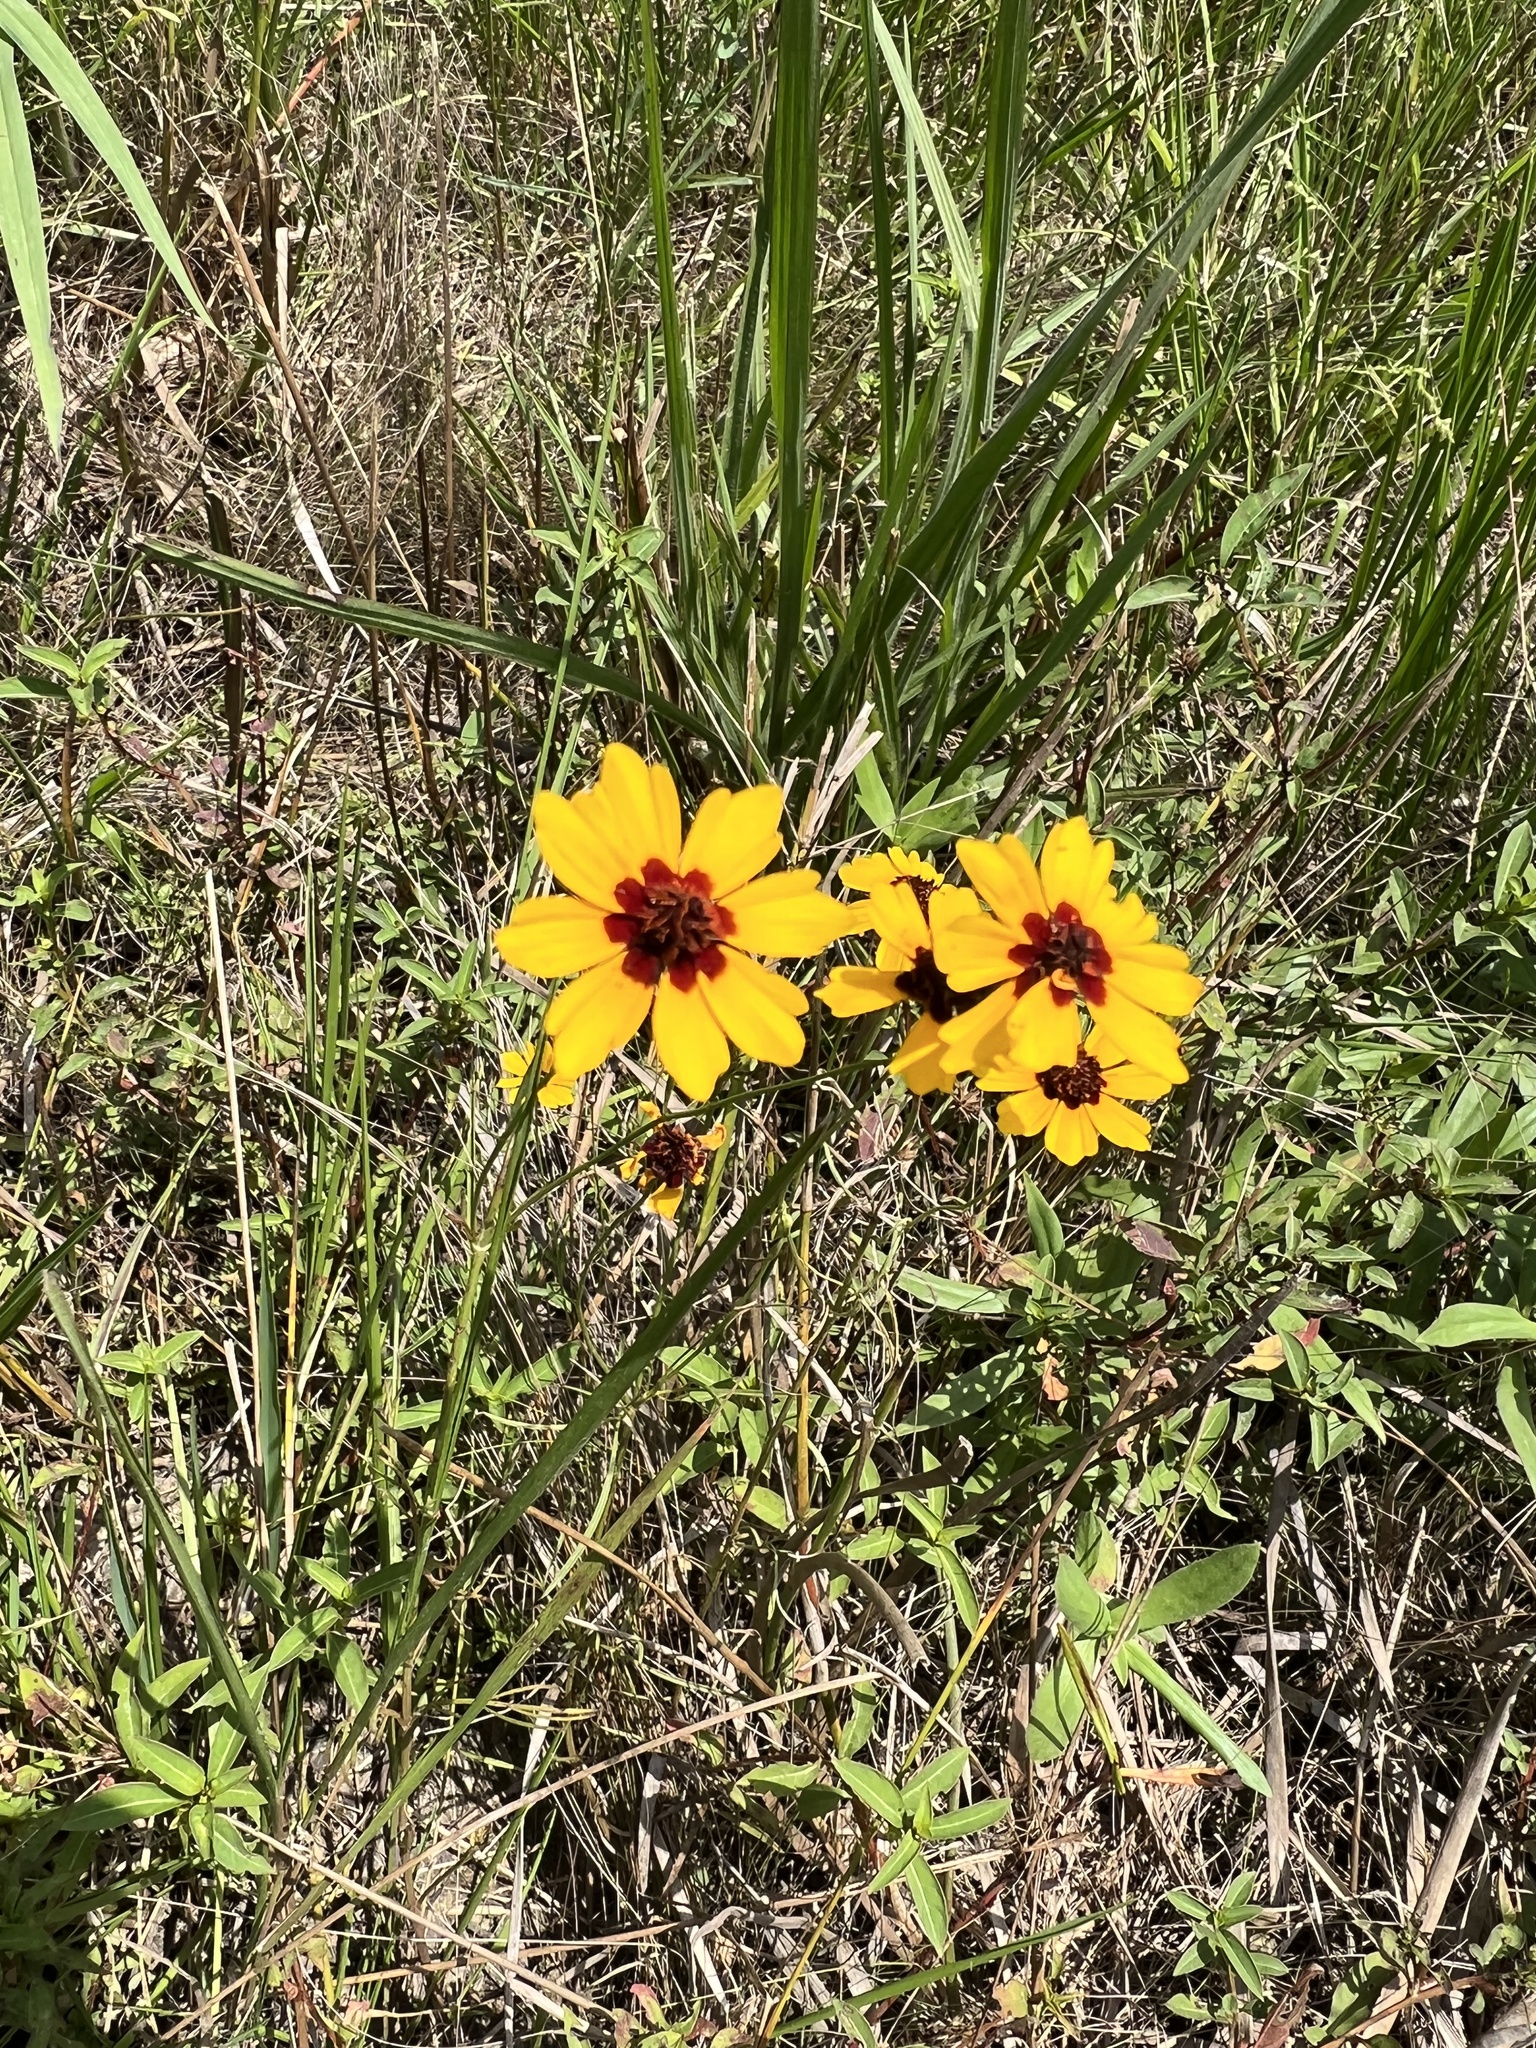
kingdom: Plantae
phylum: Tracheophyta
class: Magnoliopsida
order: Asterales
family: Asteraceae
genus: Coreopsis
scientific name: Coreopsis tinctoria
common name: Garden tickseed
